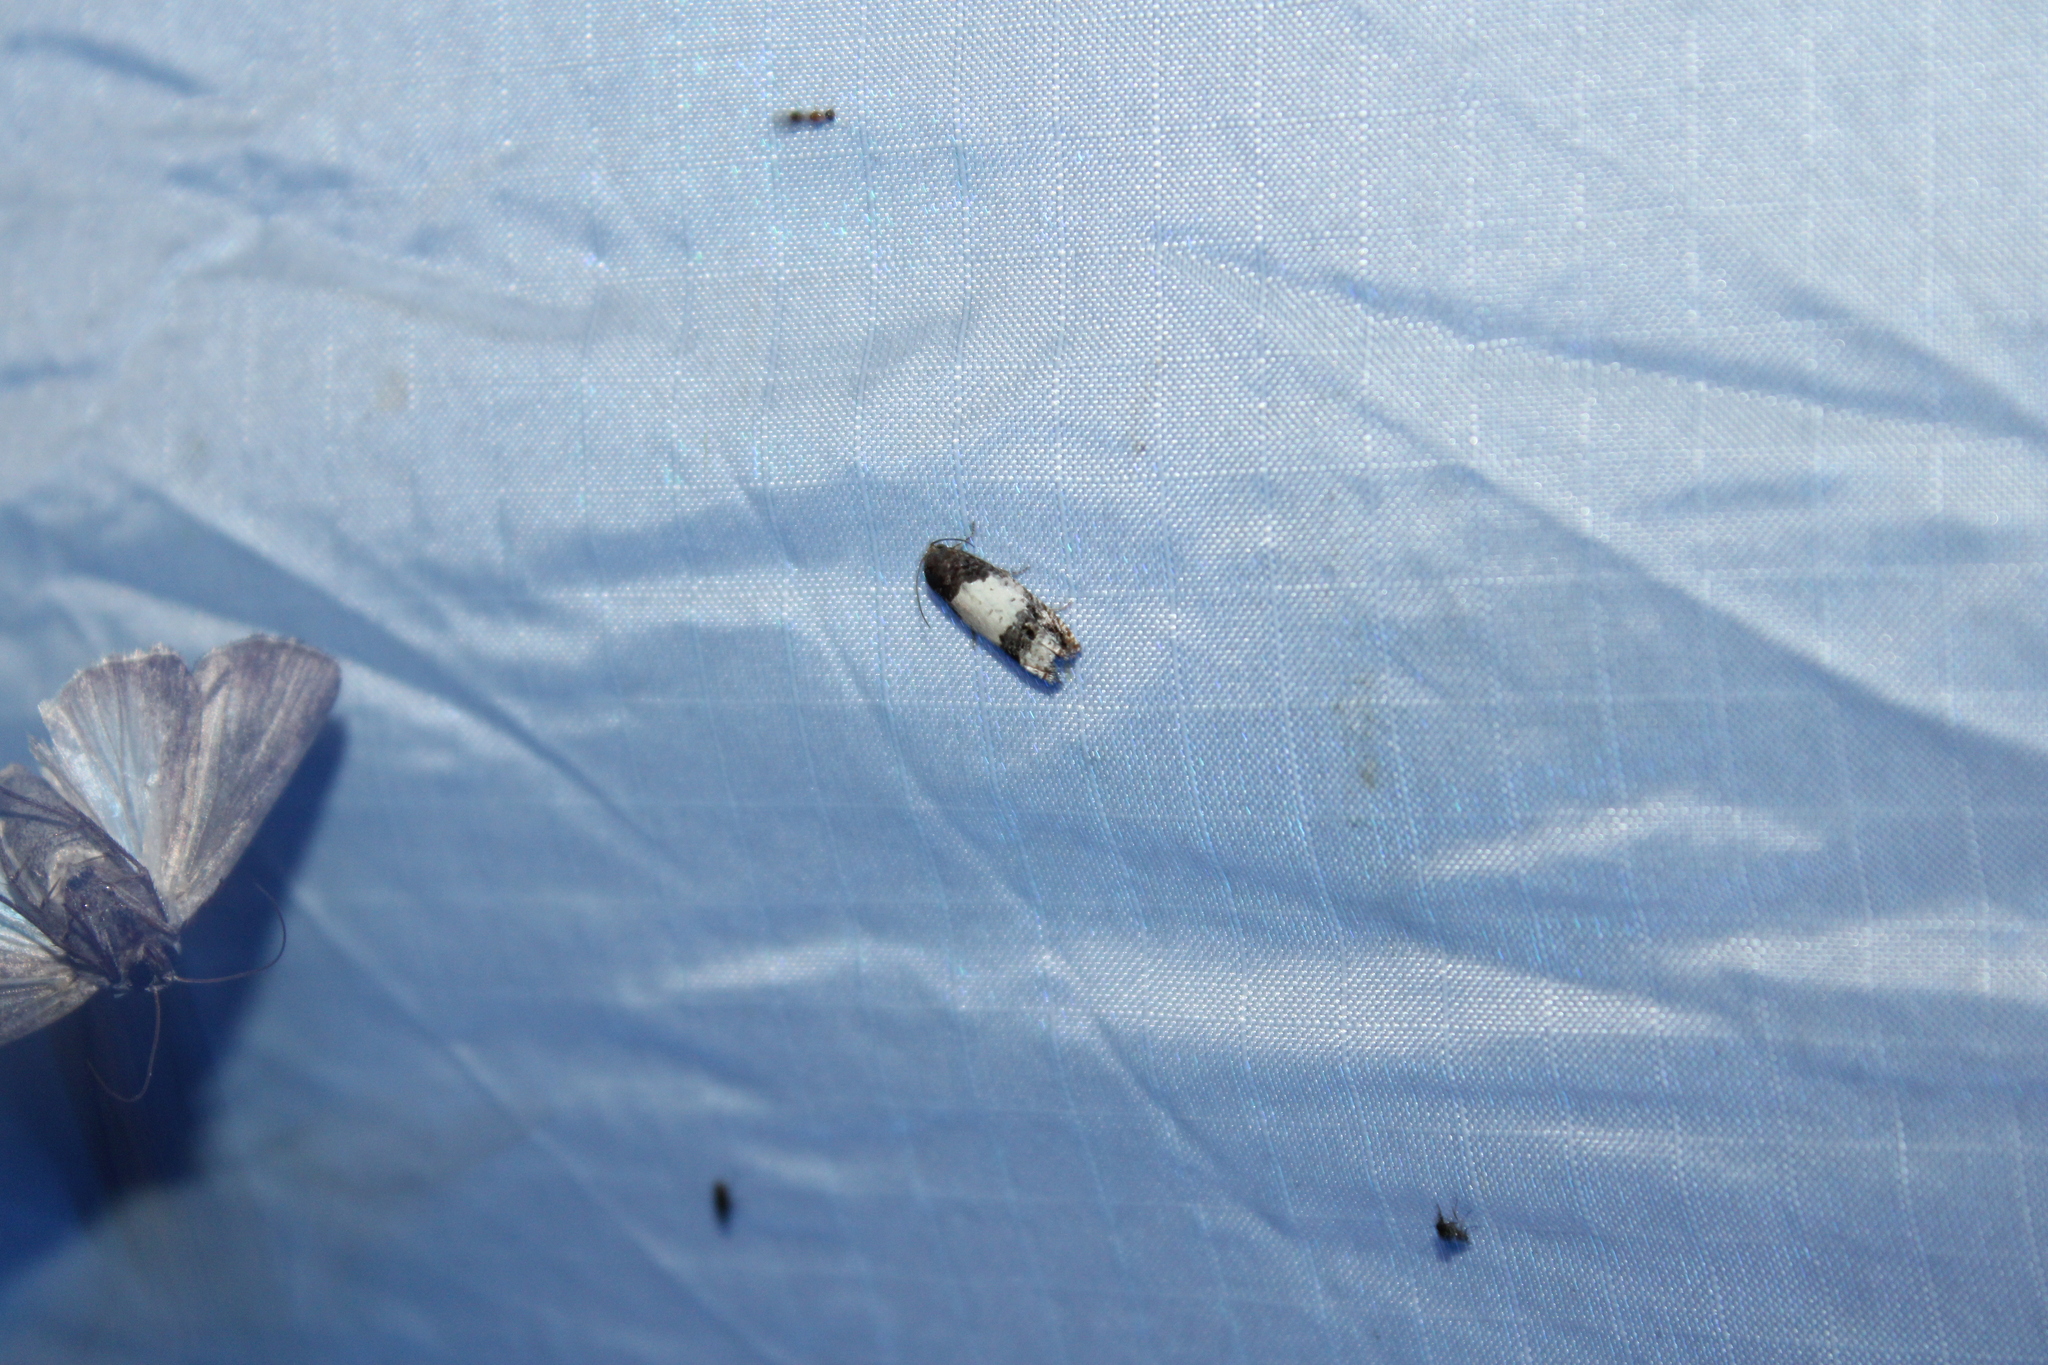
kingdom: Animalia
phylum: Arthropoda
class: Insecta
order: Lepidoptera
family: Tortricidae
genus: Epiblema
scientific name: Epiblema scudderiana
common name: Goldenrod gall moth
